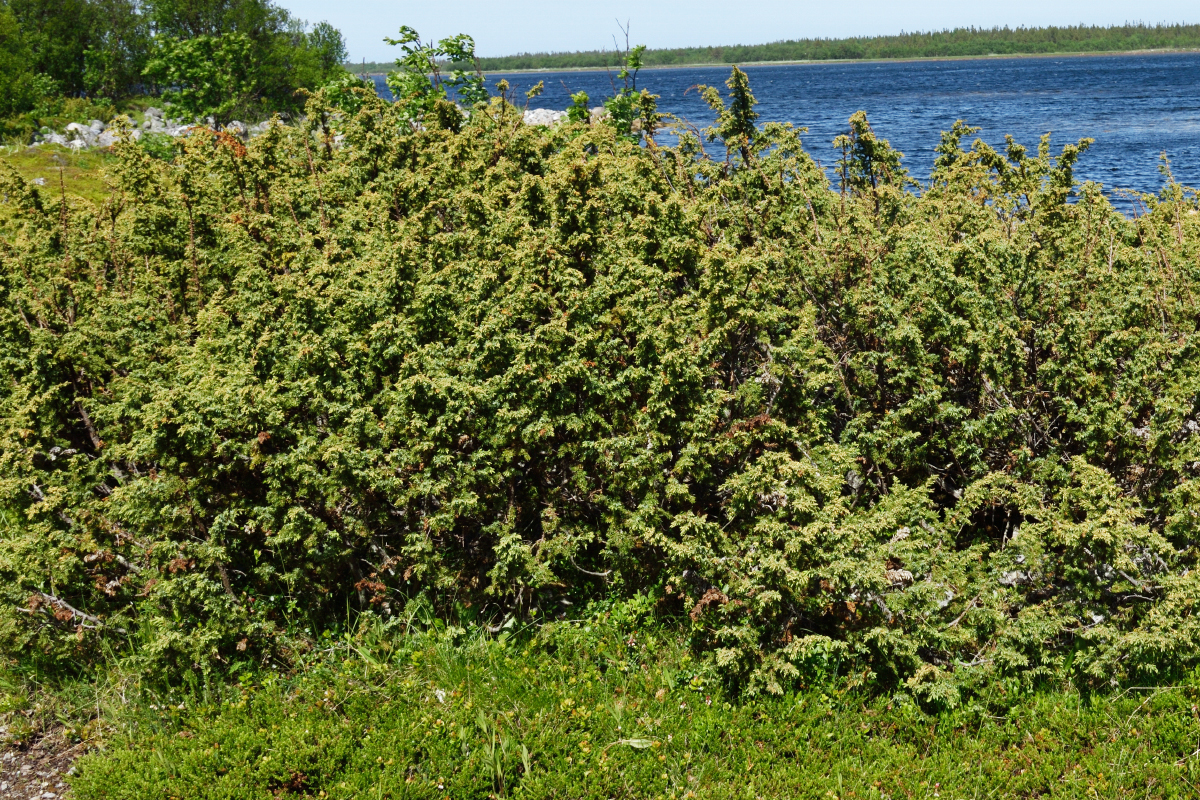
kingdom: Plantae
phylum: Tracheophyta
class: Pinopsida
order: Pinales
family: Cupressaceae
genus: Juniperus
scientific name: Juniperus communis
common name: Common juniper
